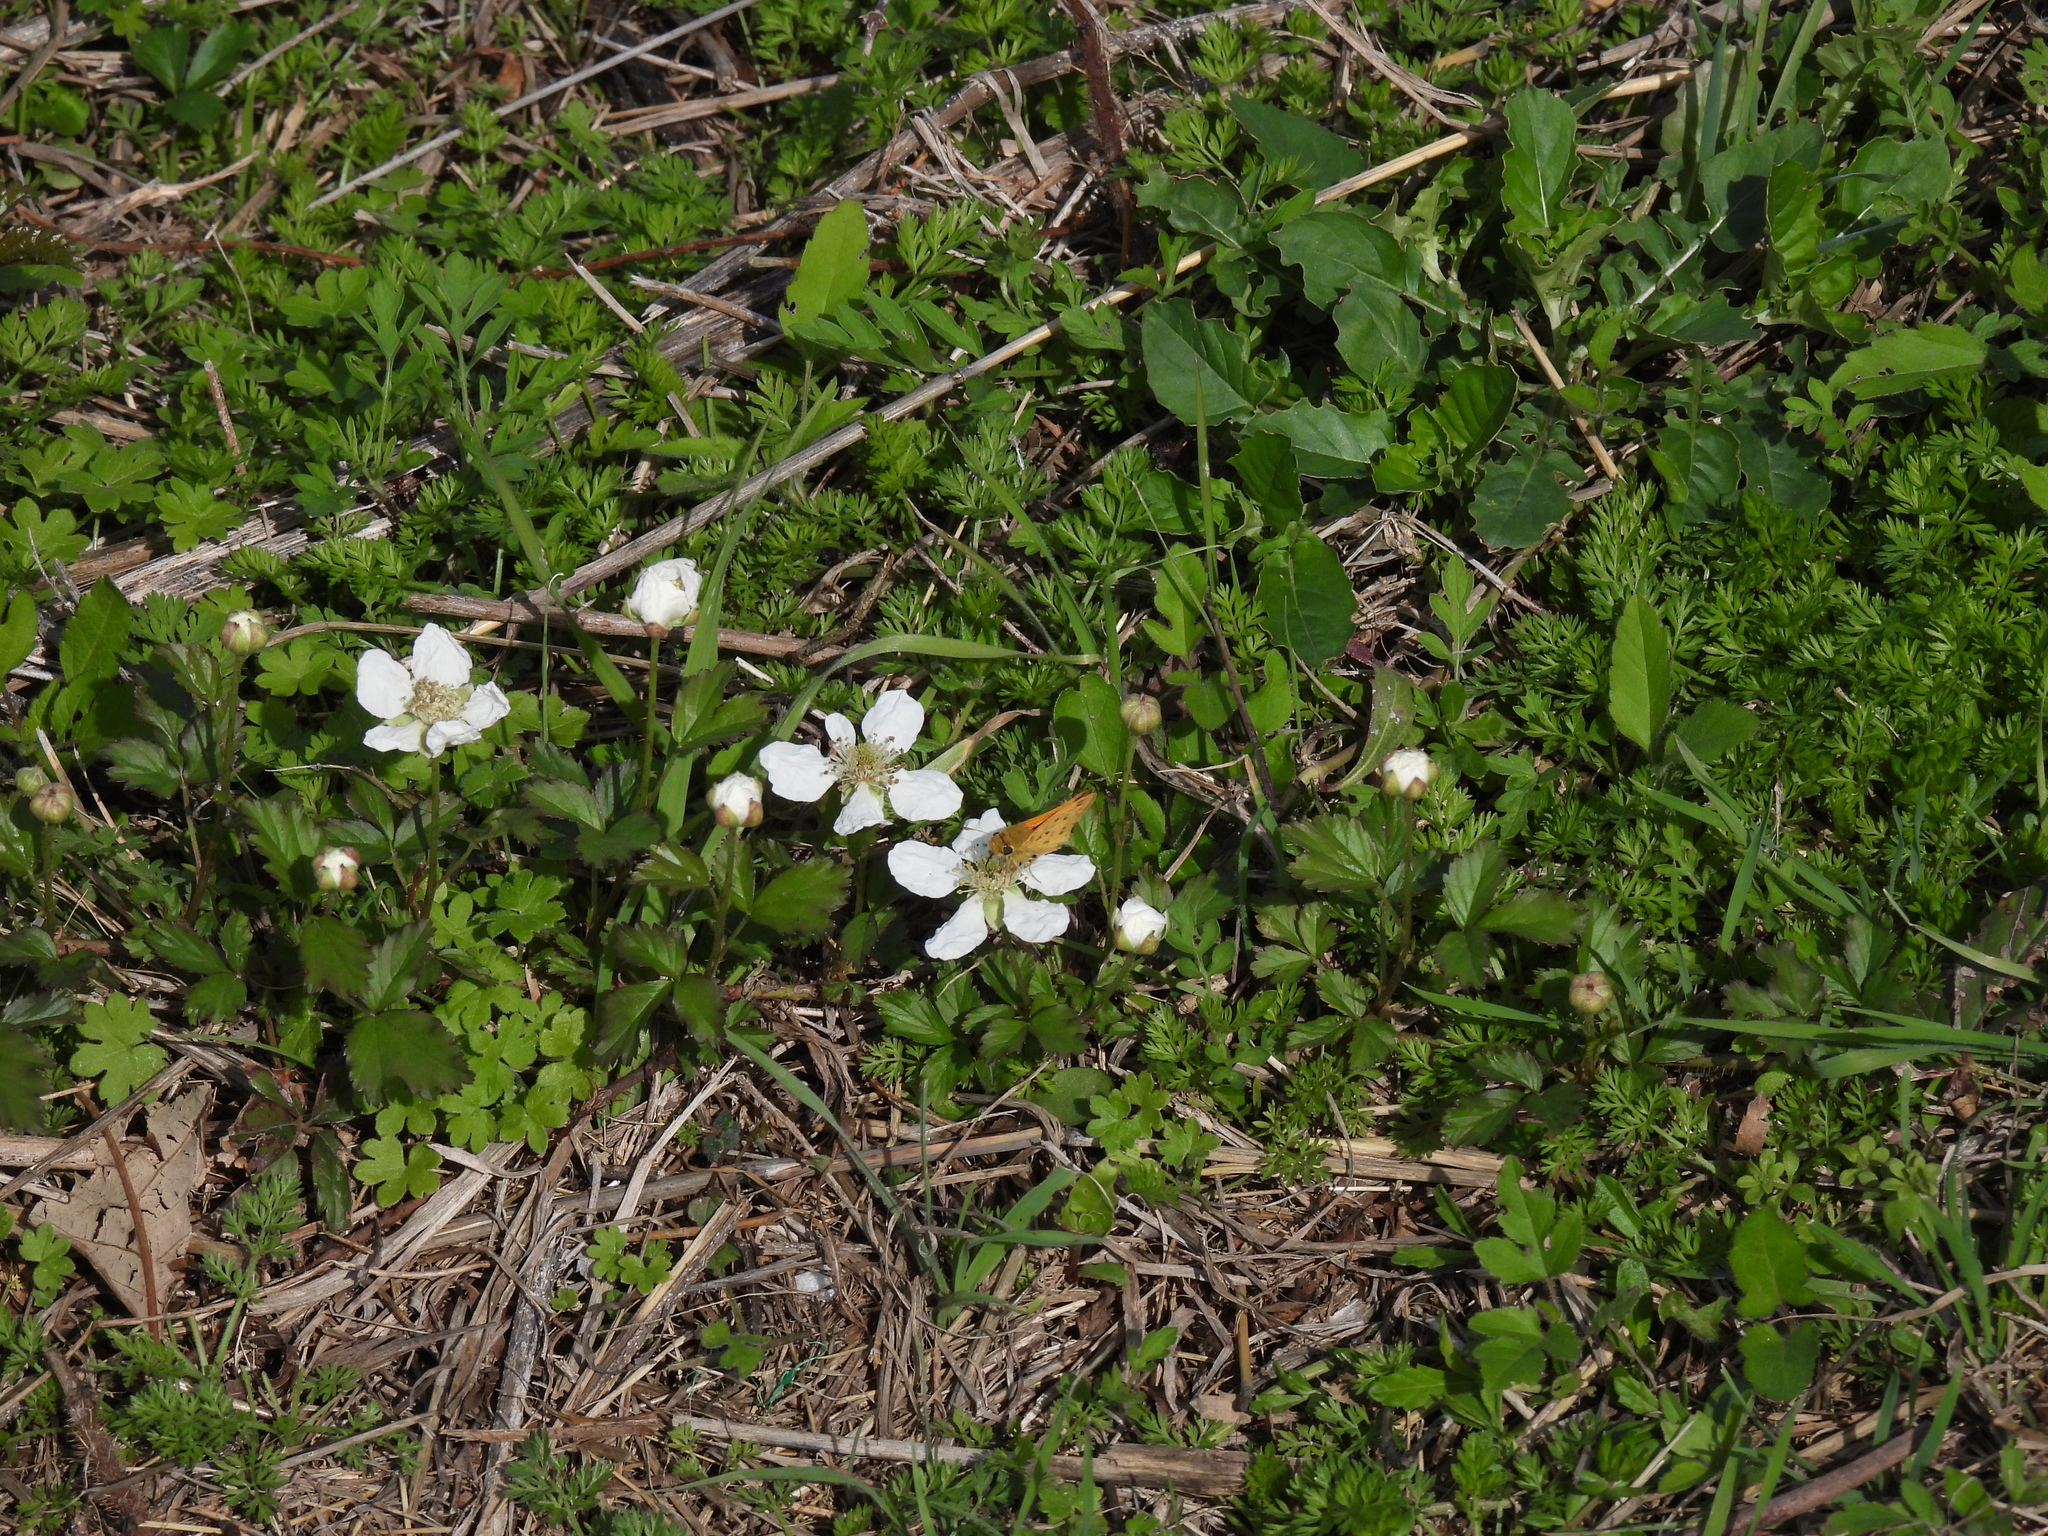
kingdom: Plantae
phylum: Tracheophyta
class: Magnoliopsida
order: Rosales
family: Rosaceae
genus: Rubus
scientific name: Rubus trivialis
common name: Southern dewberry
